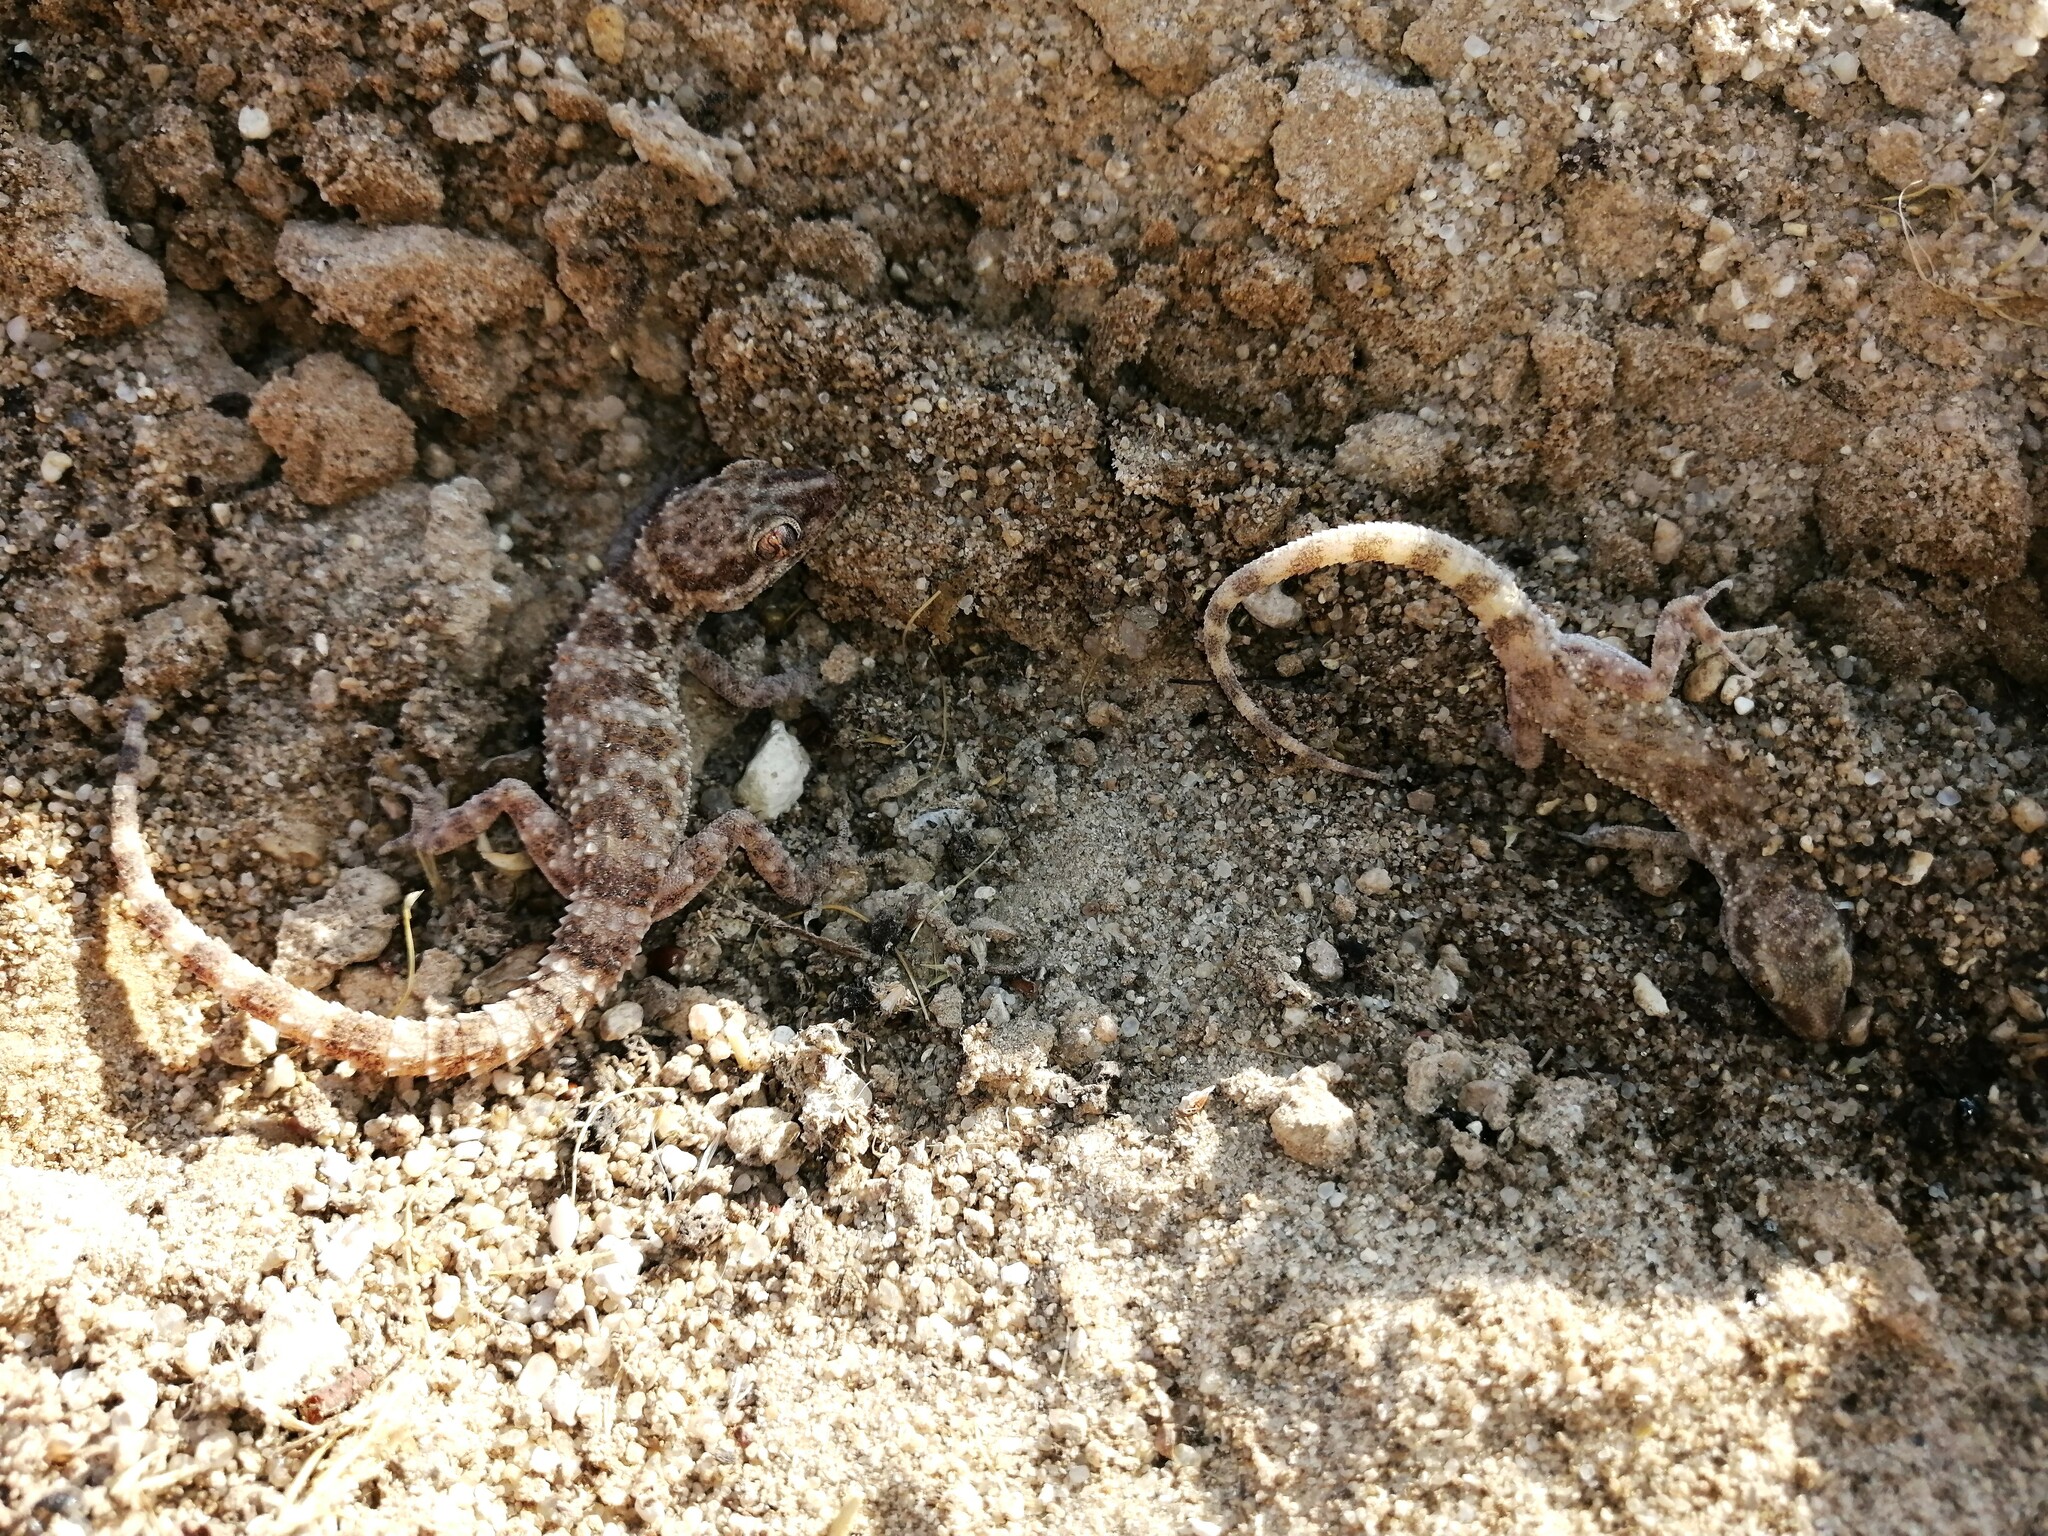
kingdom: Animalia
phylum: Chordata
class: Squamata
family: Gekkonidae
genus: Bunopus
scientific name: Bunopus tuberculatus
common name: Southern tuberculated gecko
